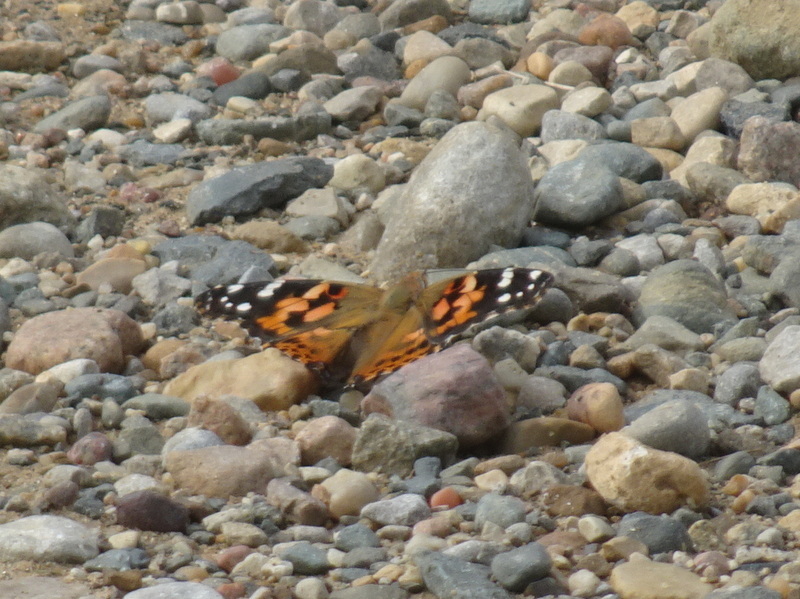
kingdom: Animalia
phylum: Arthropoda
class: Insecta
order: Lepidoptera
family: Nymphalidae
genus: Vanessa
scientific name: Vanessa cardui
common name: Painted lady
